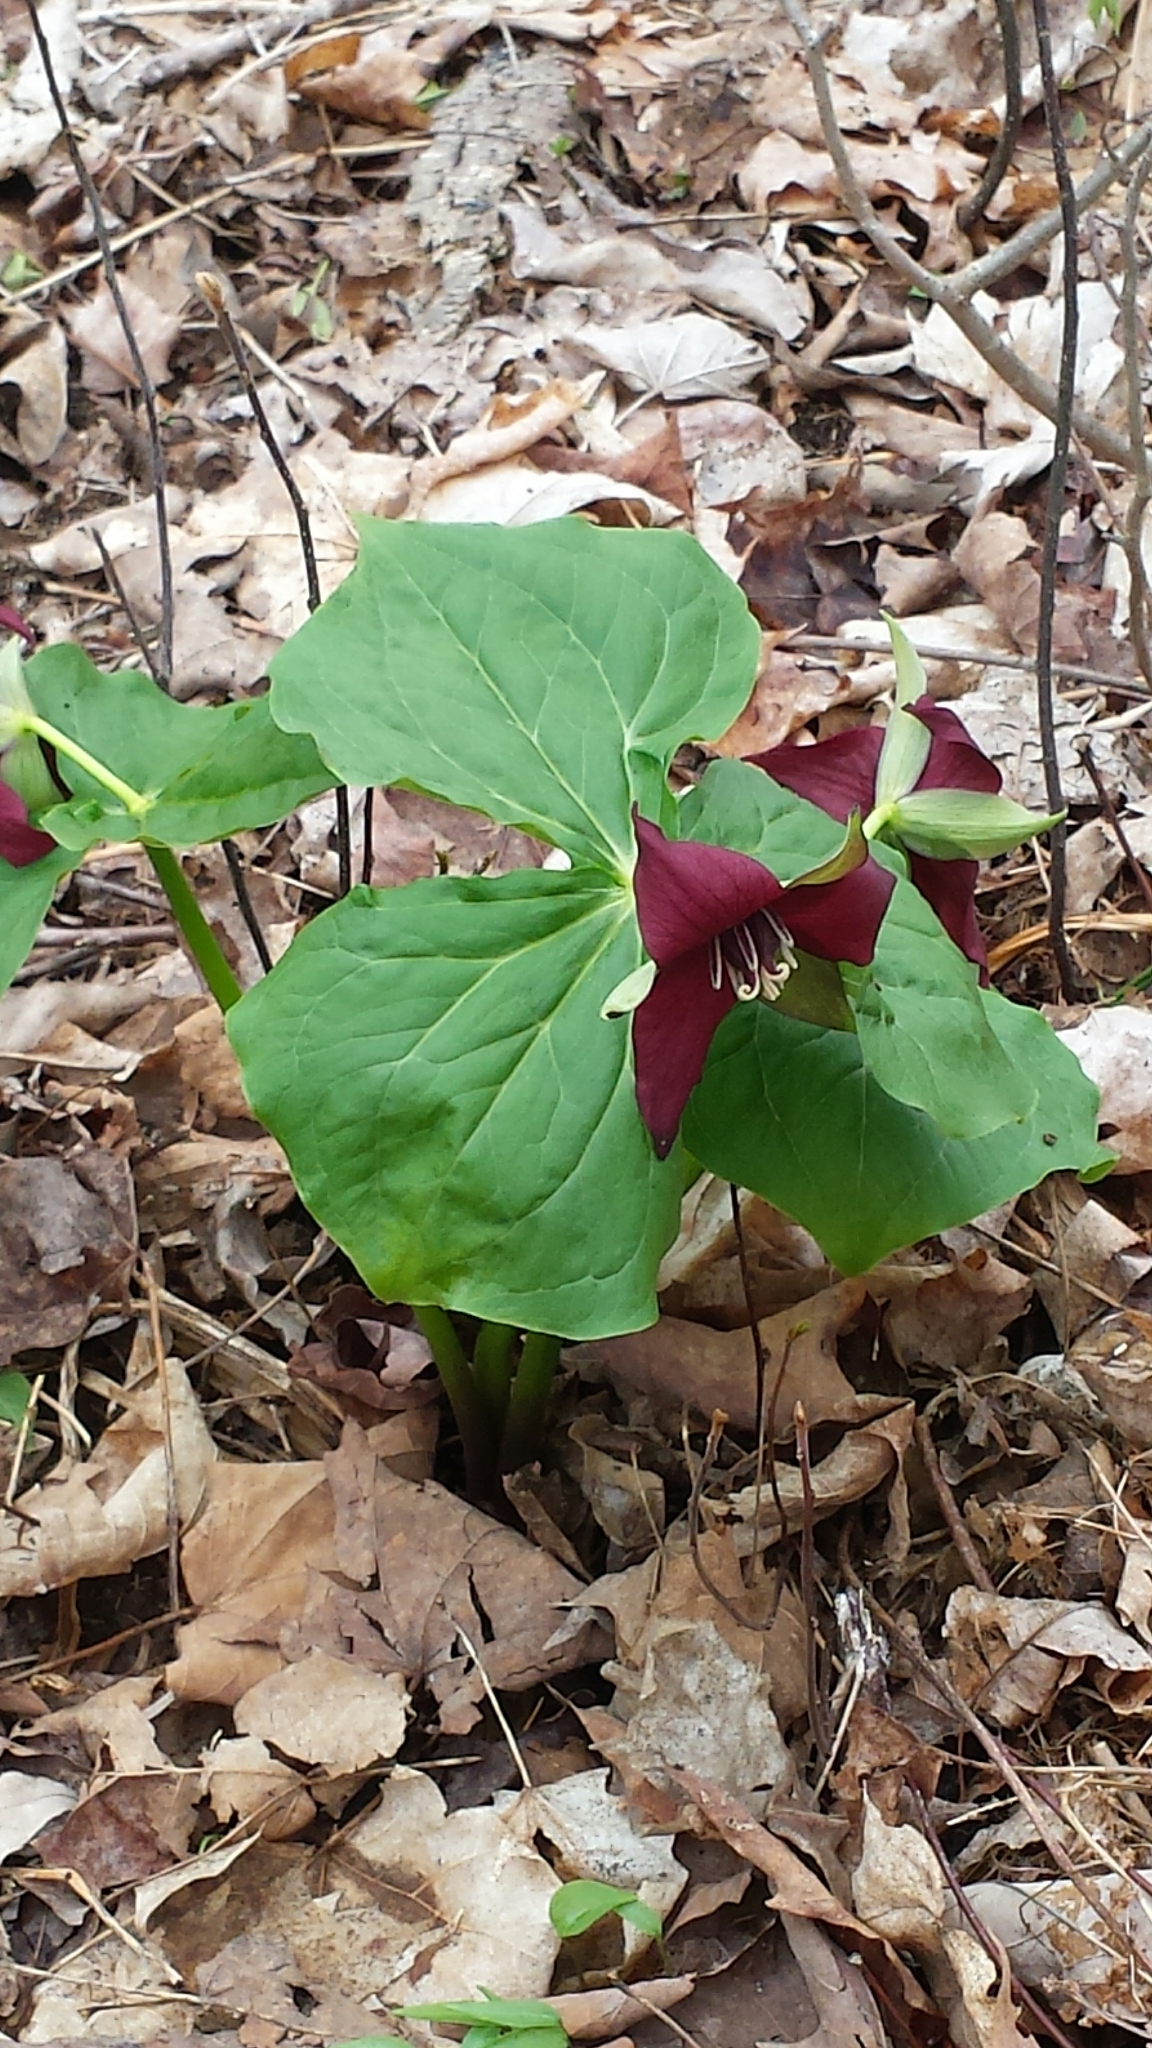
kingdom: Plantae
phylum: Tracheophyta
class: Liliopsida
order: Liliales
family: Melanthiaceae
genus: Trillium
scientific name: Trillium erectum
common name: Purple trillium
